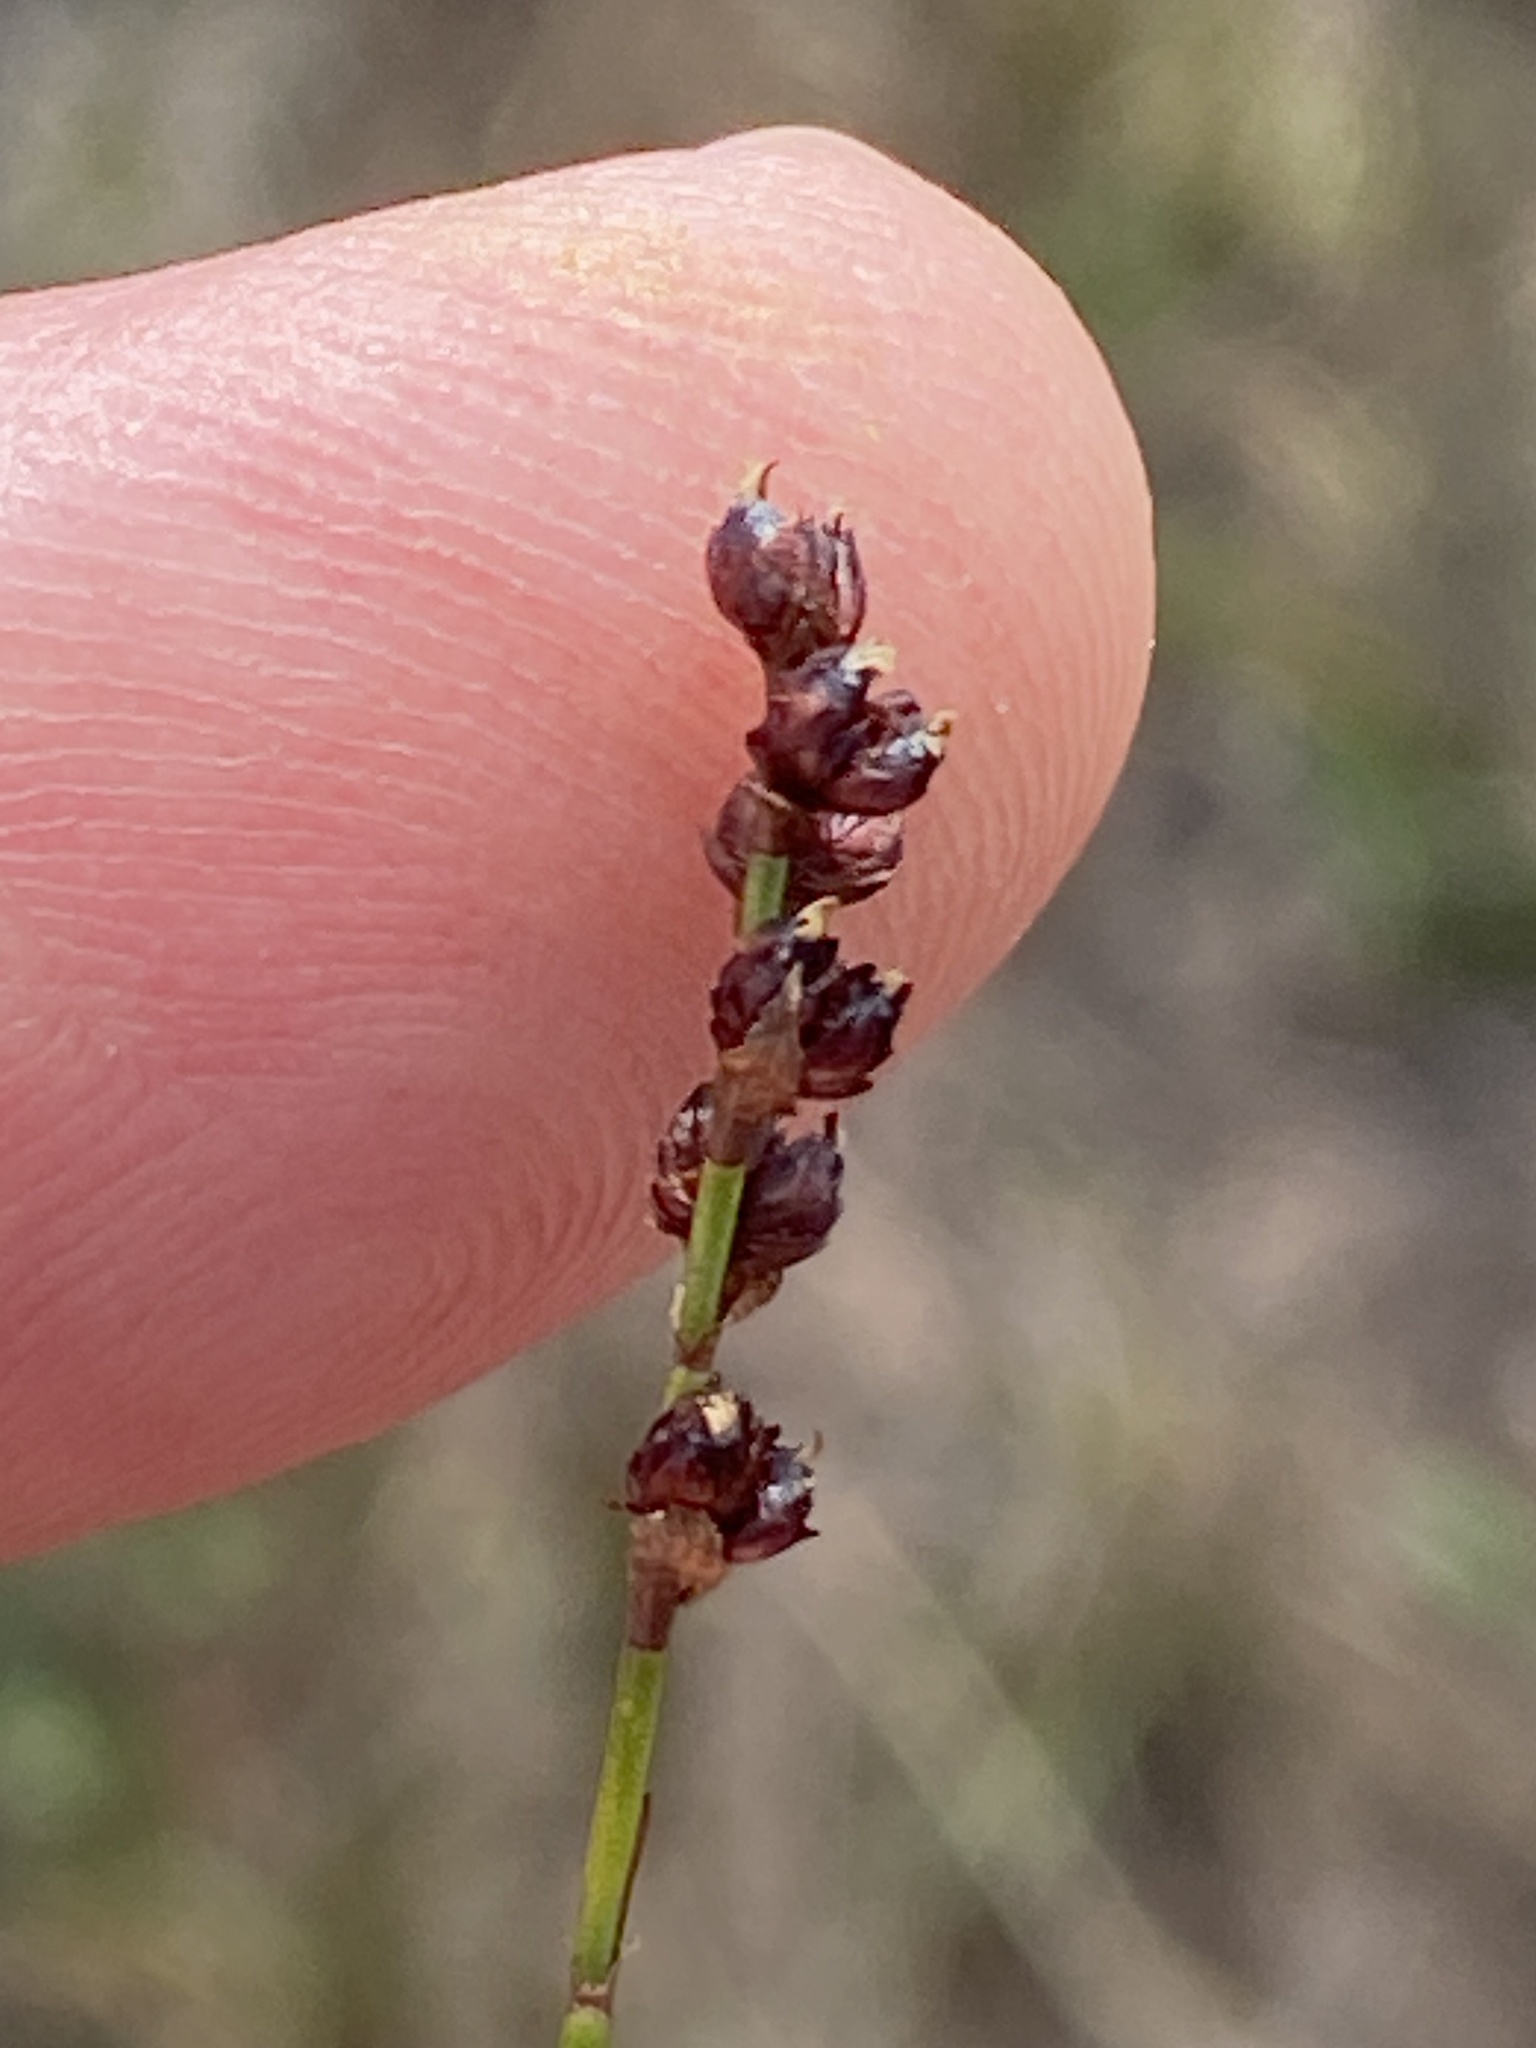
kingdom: Plantae
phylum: Tracheophyta
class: Liliopsida
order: Poales
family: Restionaceae
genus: Elegia
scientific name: Elegia microcarpa
